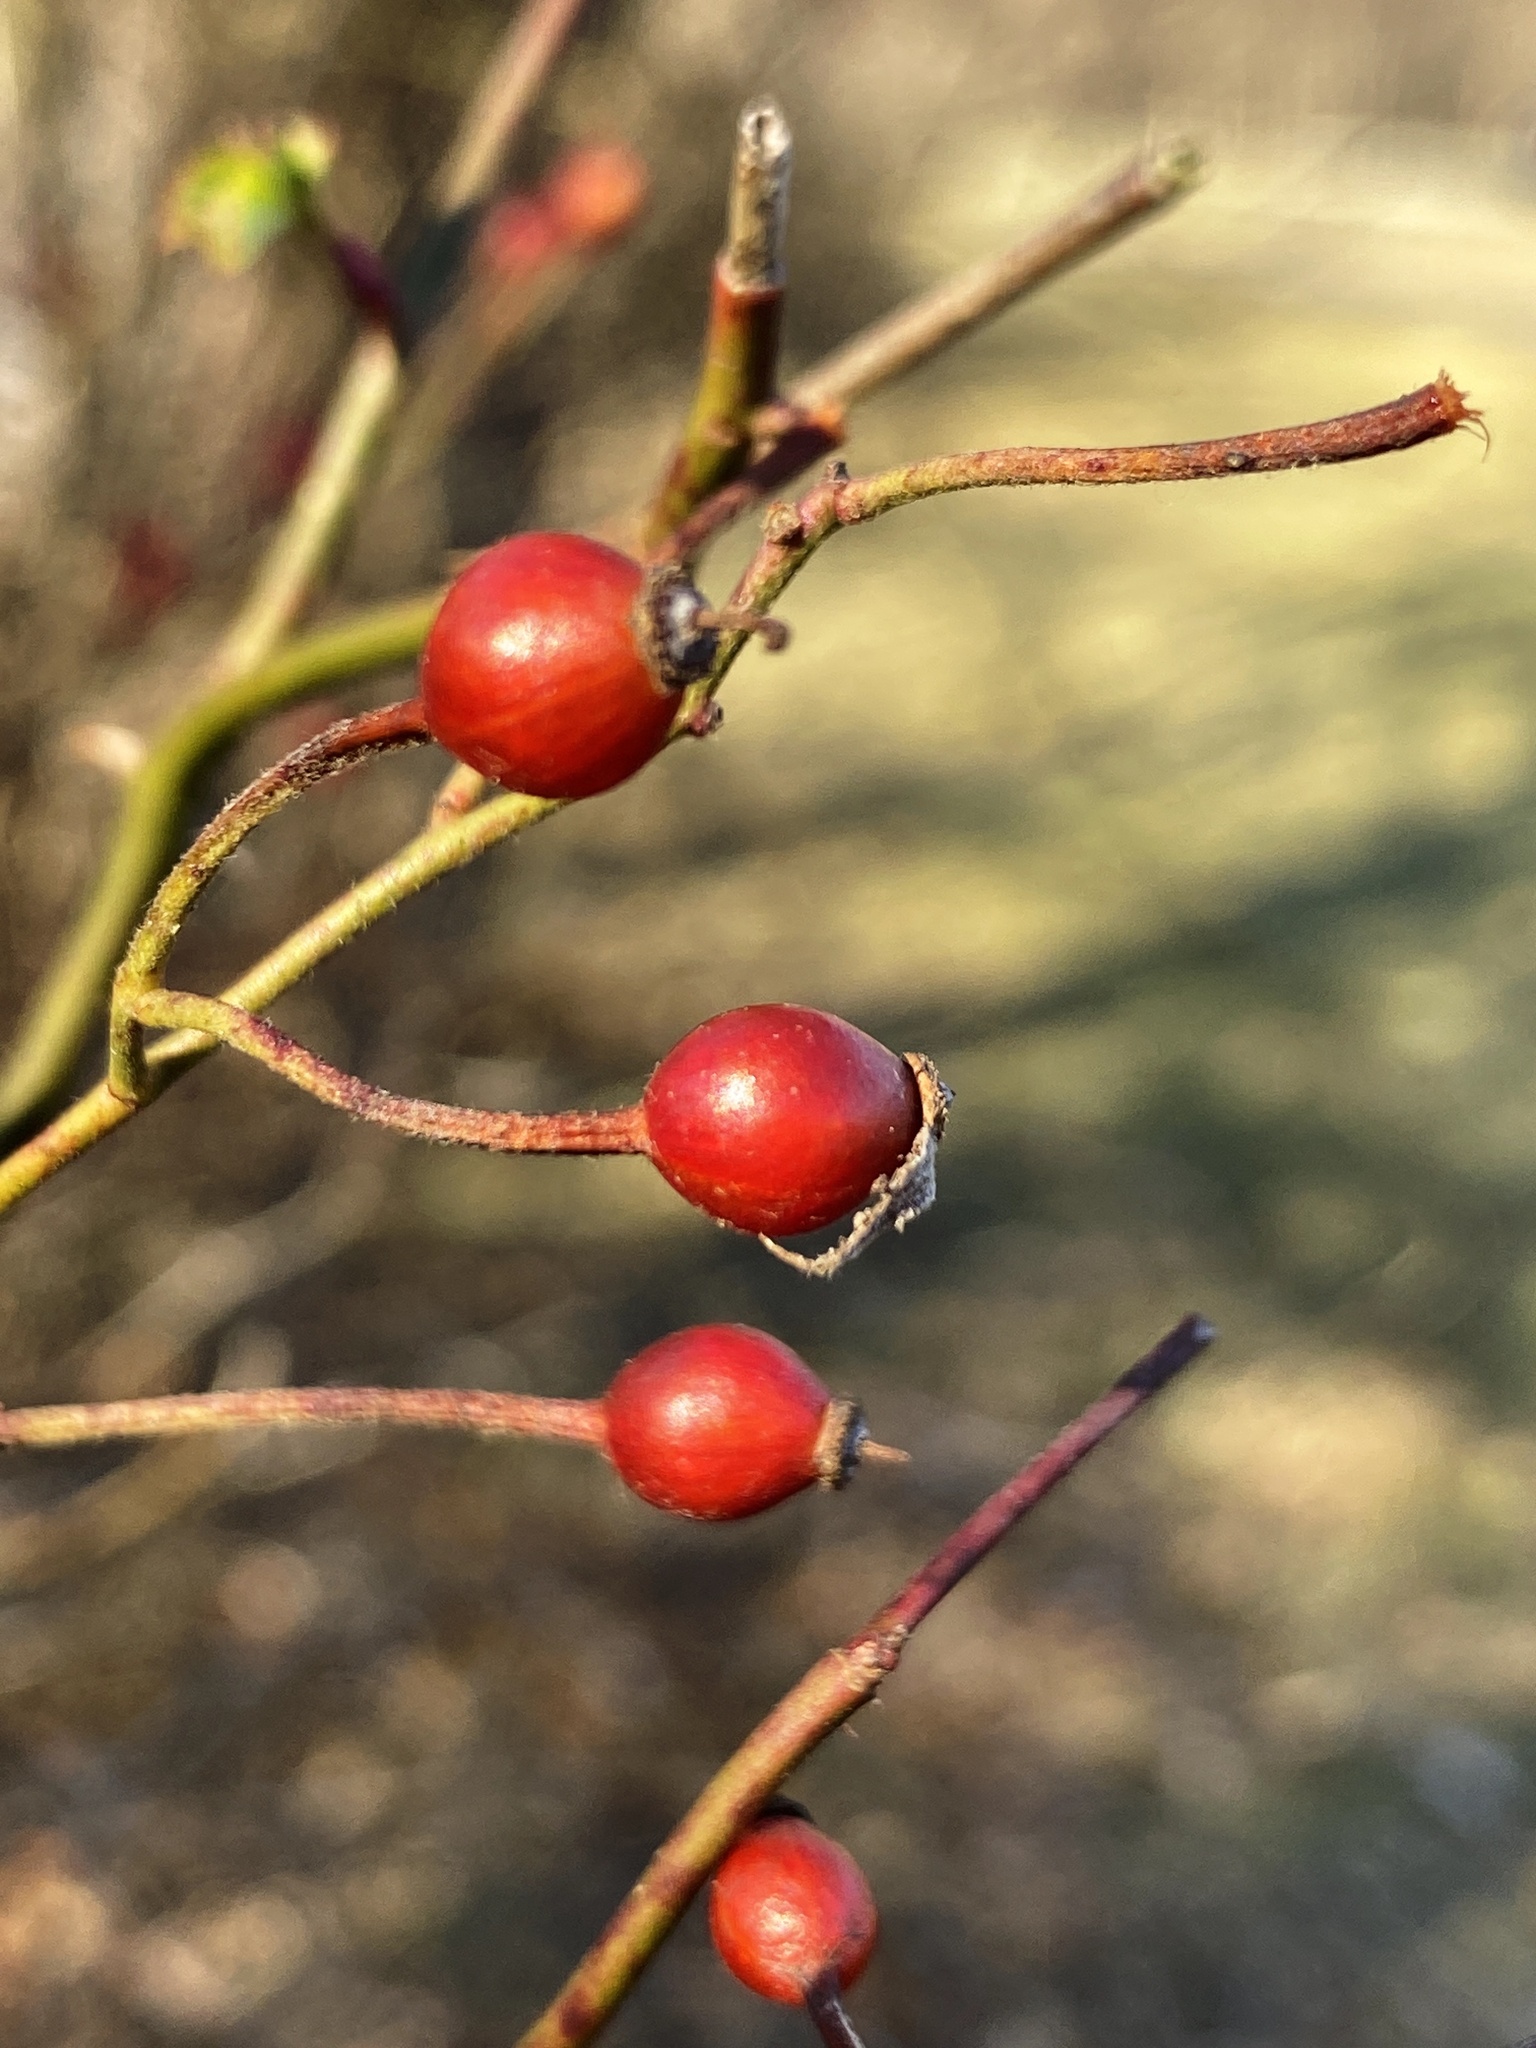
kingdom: Plantae
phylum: Tracheophyta
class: Magnoliopsida
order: Rosales
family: Rosaceae
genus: Rosa
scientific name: Rosa multiflora
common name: Multiflora rose
